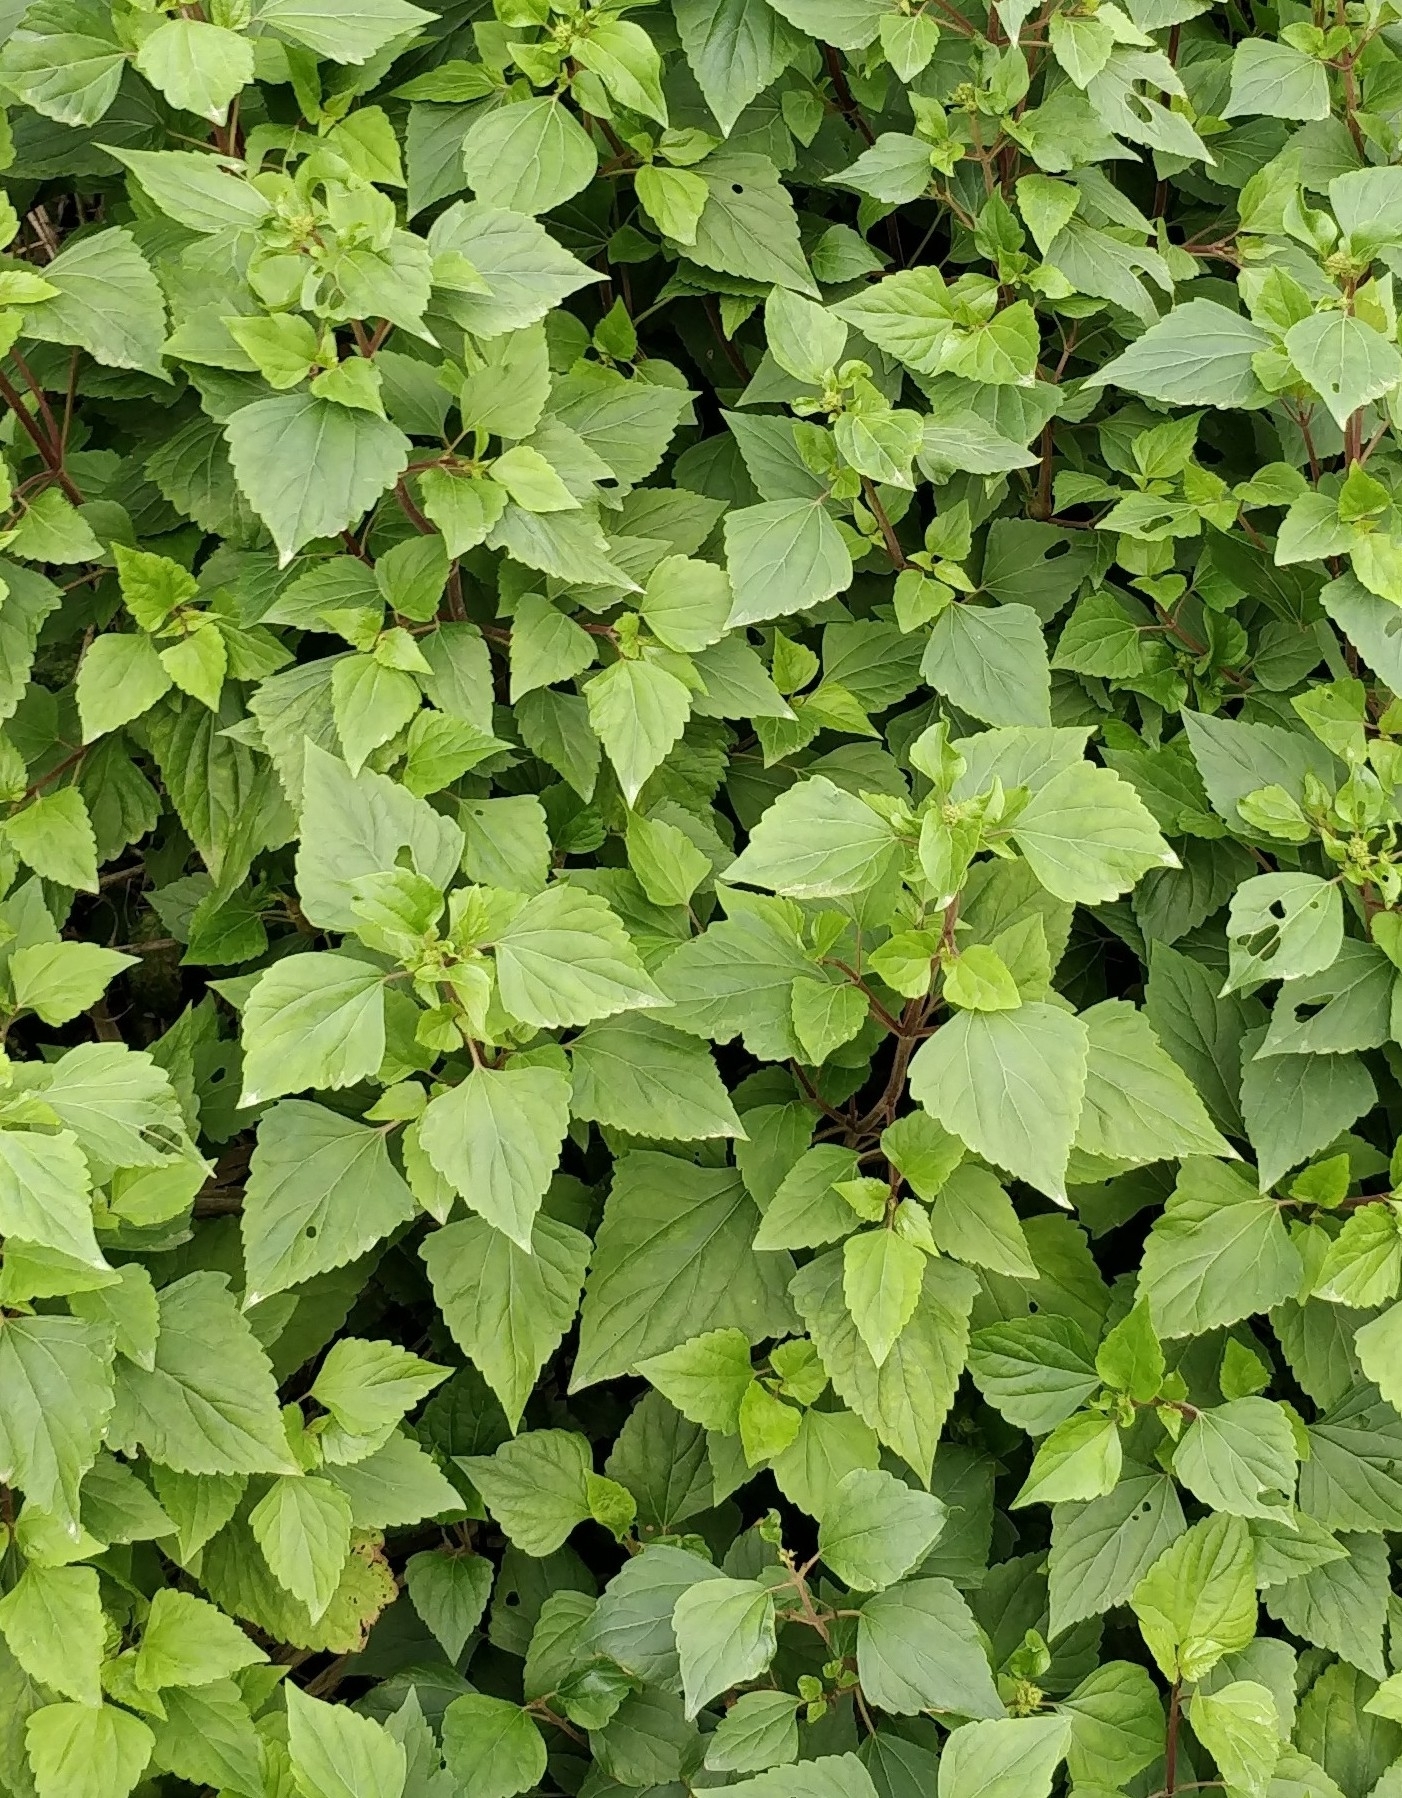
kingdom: Plantae
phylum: Tracheophyta
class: Magnoliopsida
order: Asterales
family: Asteraceae
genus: Ageratina
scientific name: Ageratina adenophora
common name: Sticky snakeroot
